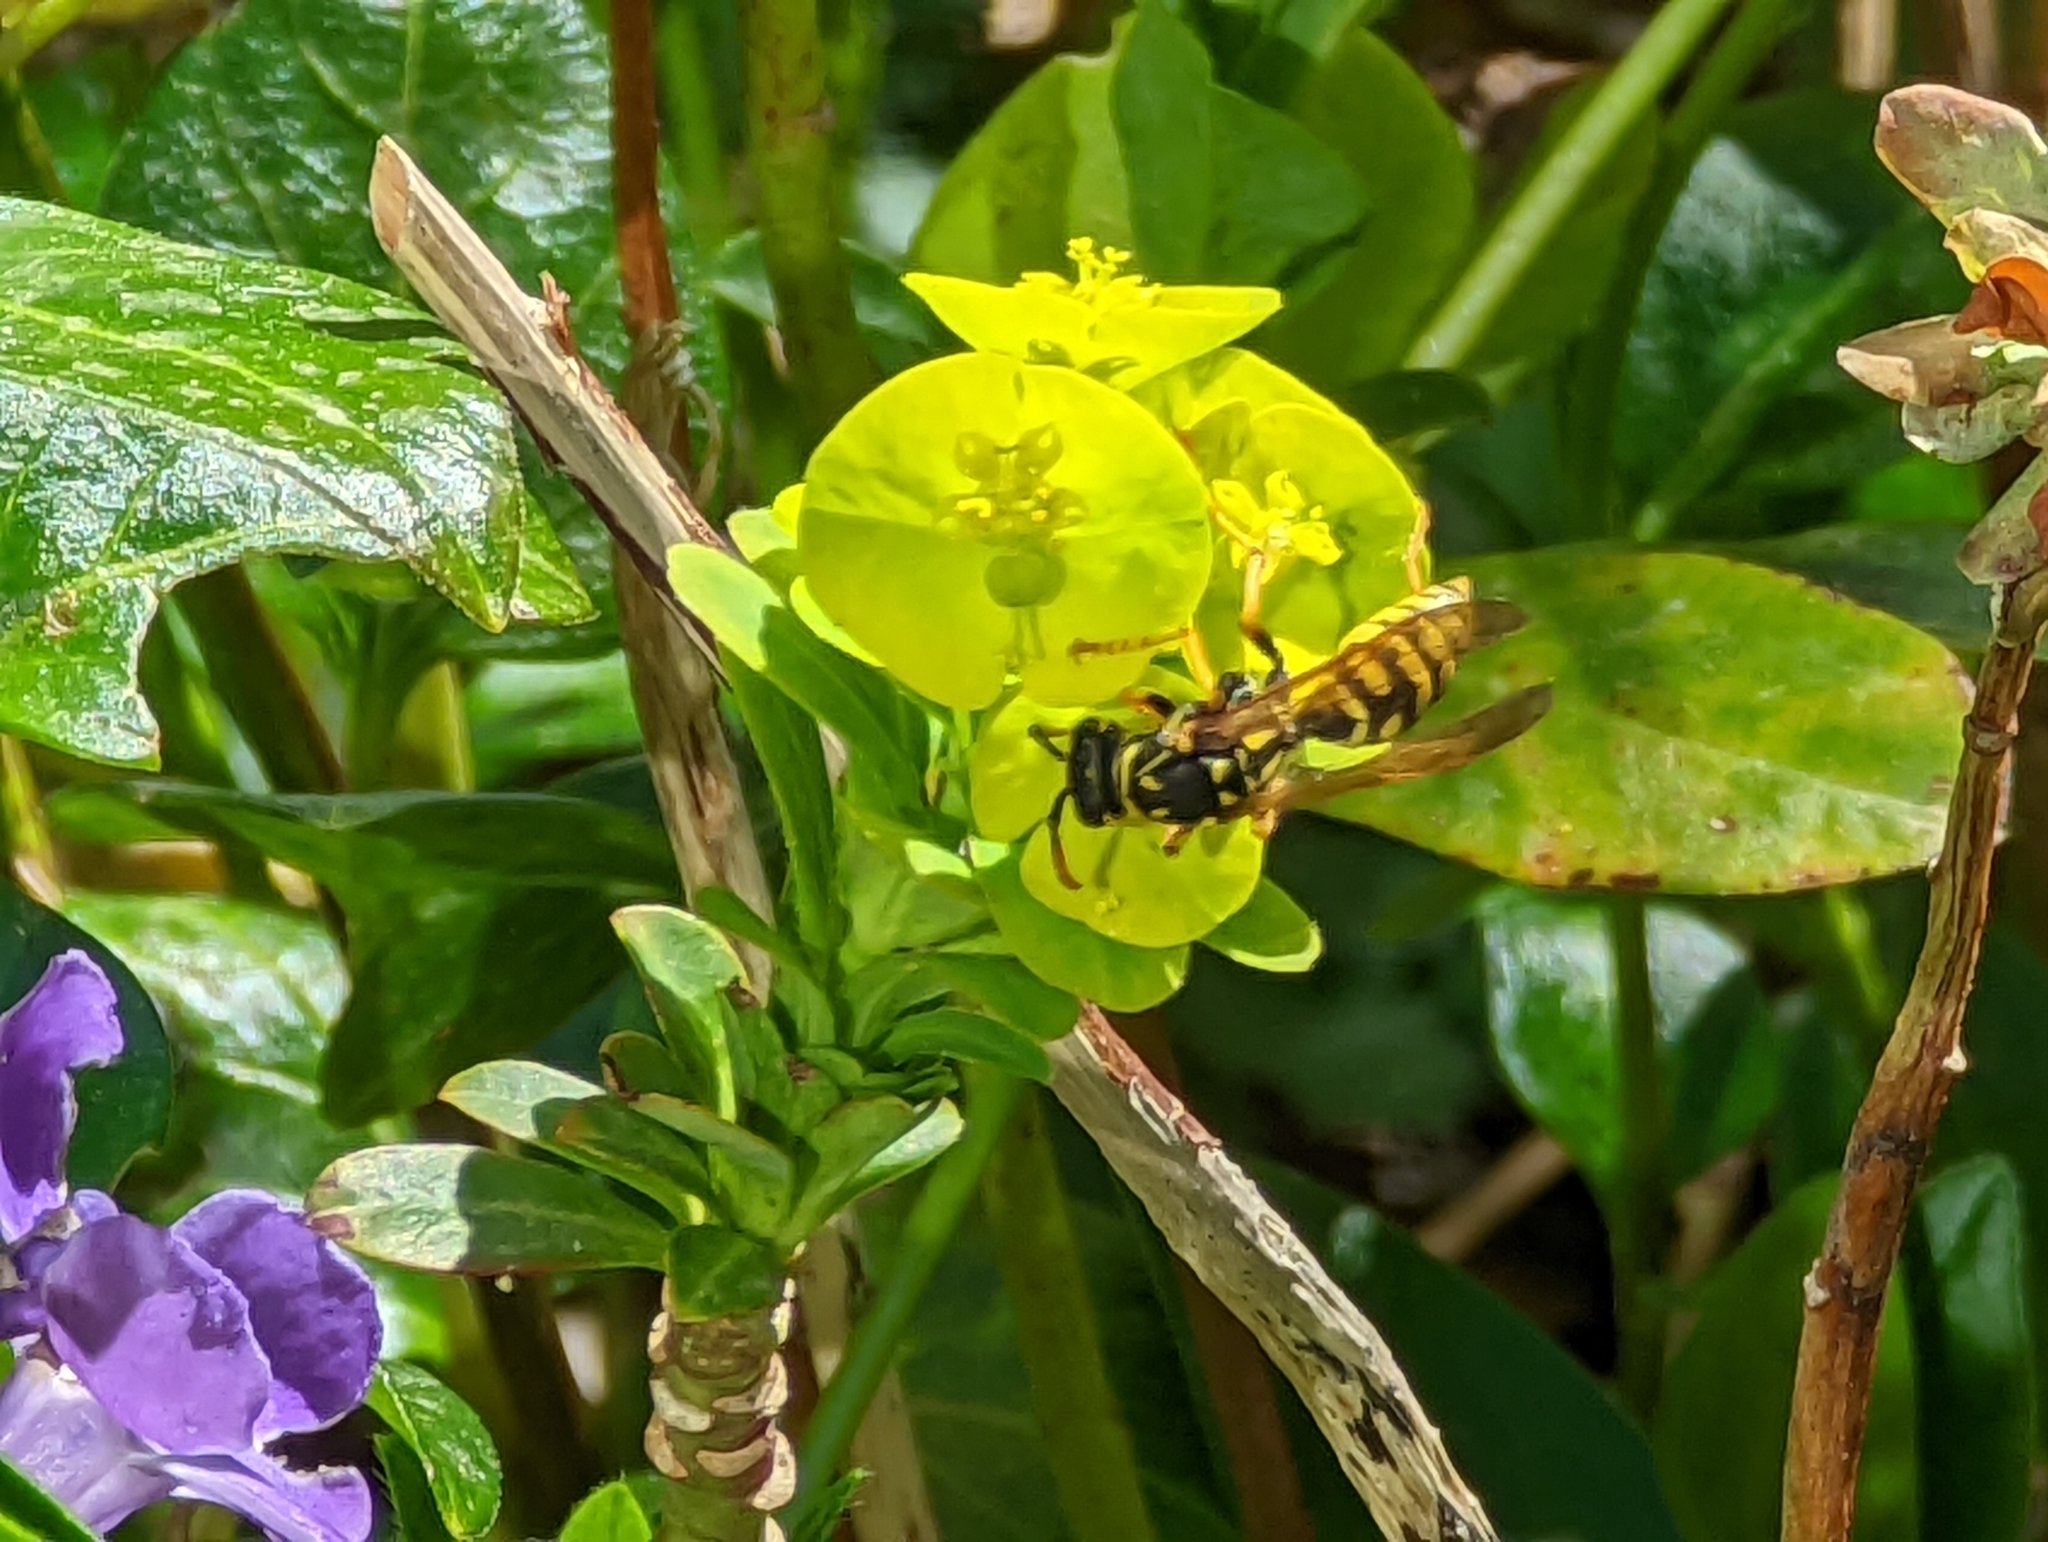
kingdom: Animalia
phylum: Arthropoda
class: Insecta
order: Hymenoptera
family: Eumenidae
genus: Polistes
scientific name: Polistes dominula
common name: Paper wasp
